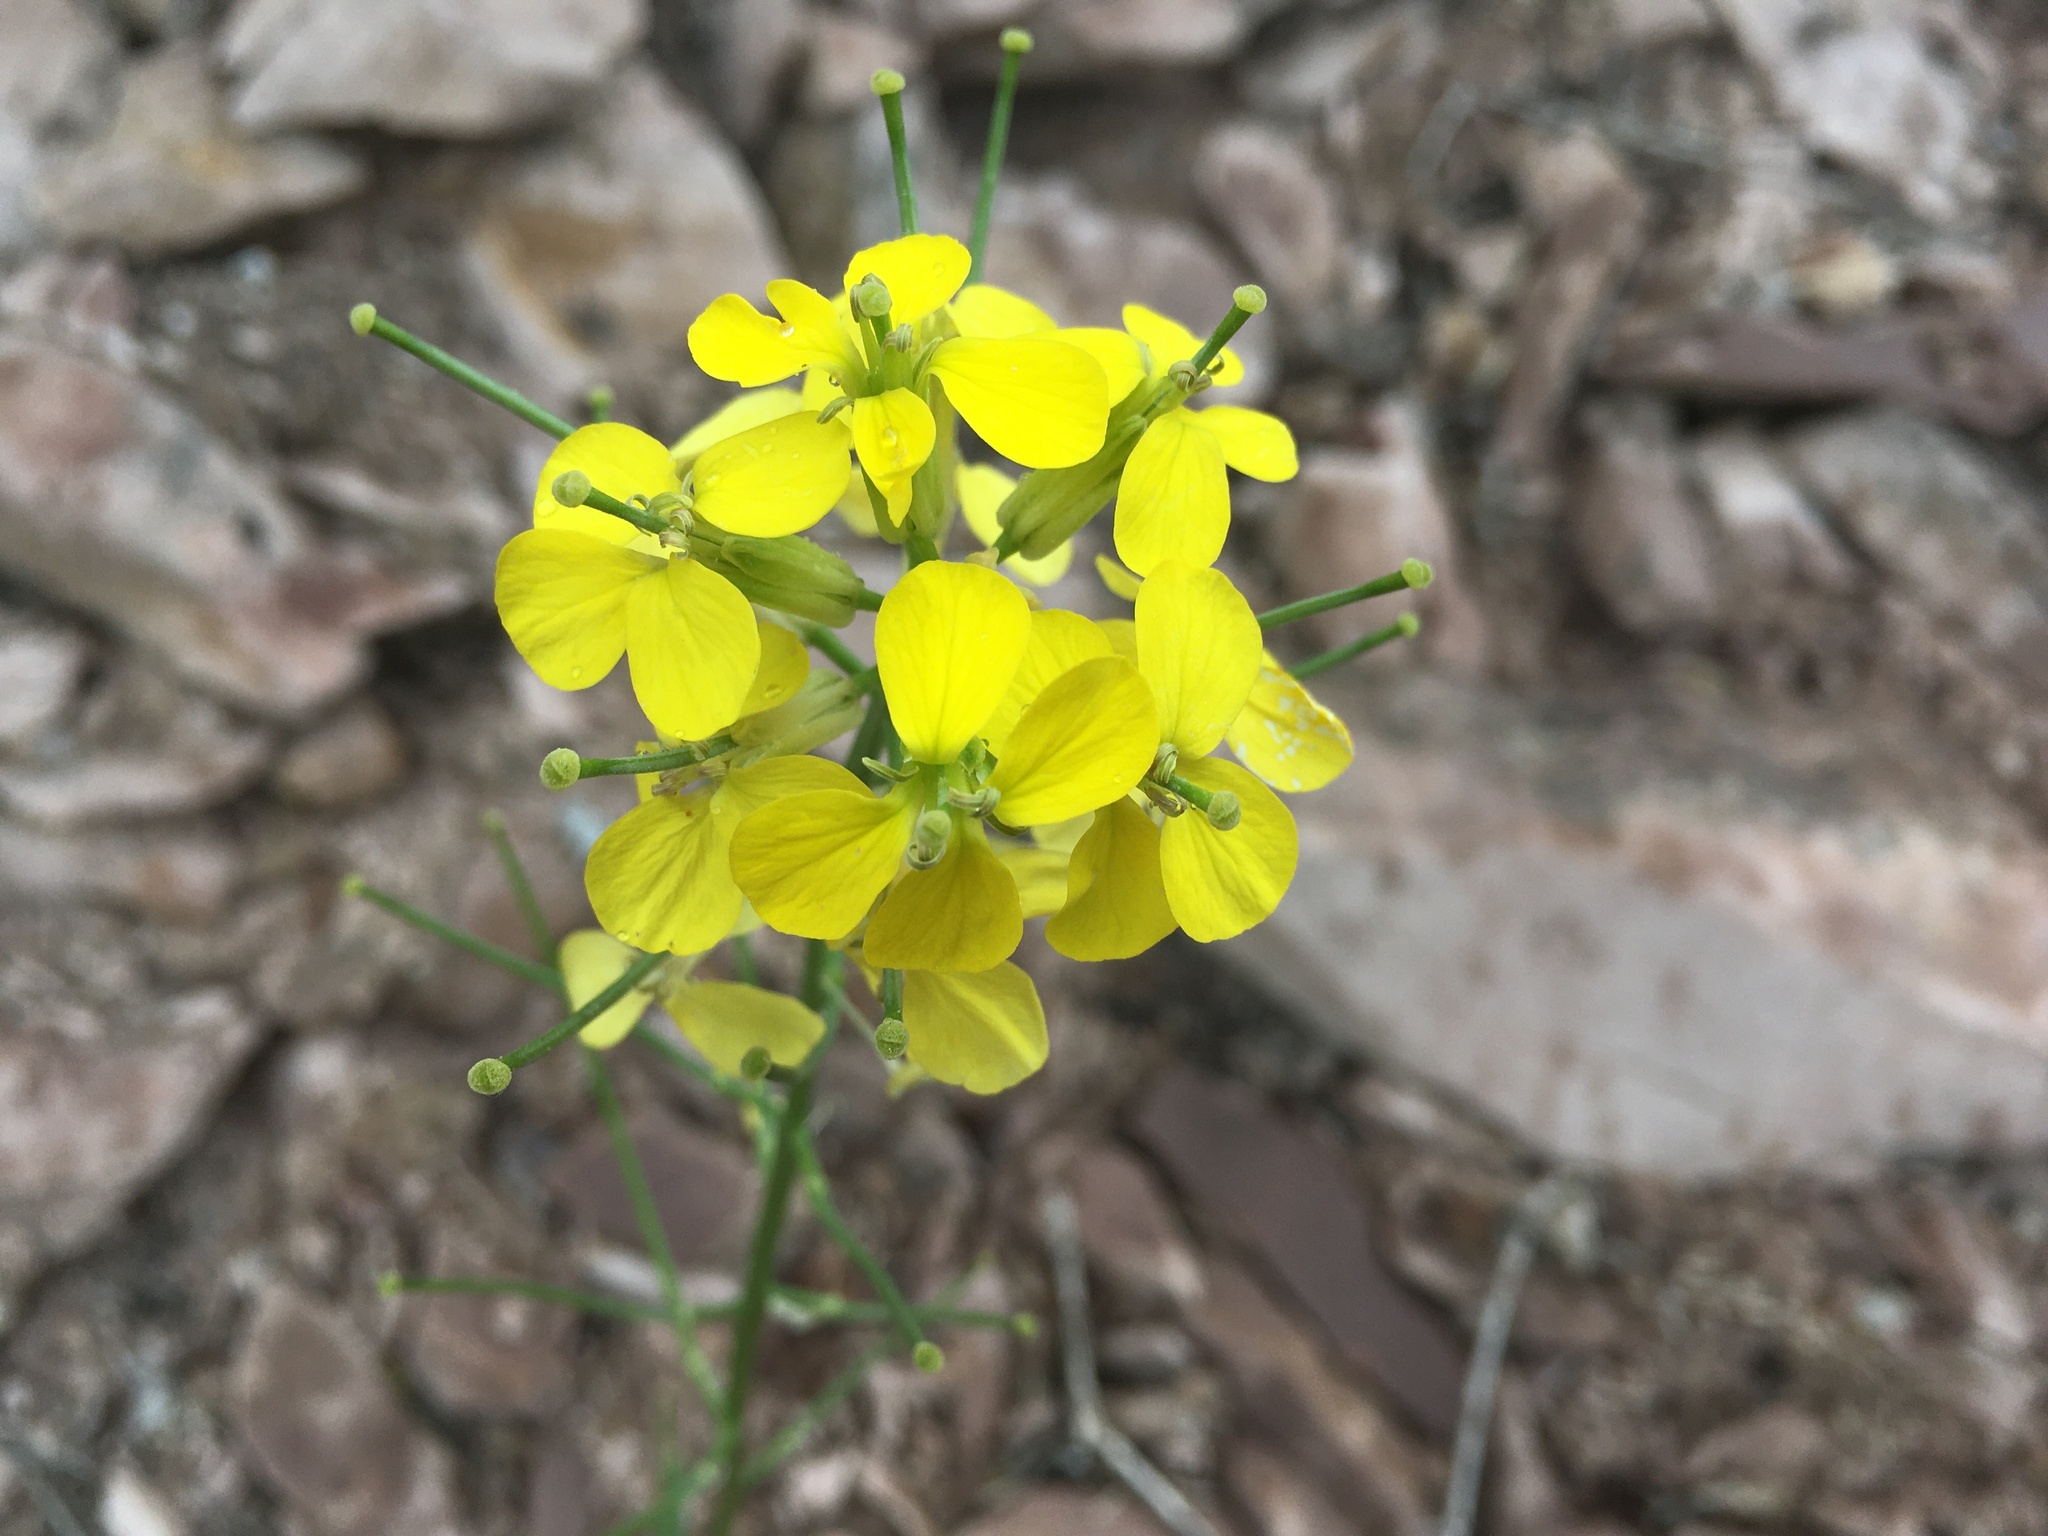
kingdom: Plantae
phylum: Tracheophyta
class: Magnoliopsida
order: Brassicales
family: Brassicaceae
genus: Erysimum
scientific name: Erysimum capitatum
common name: Western wallflower
